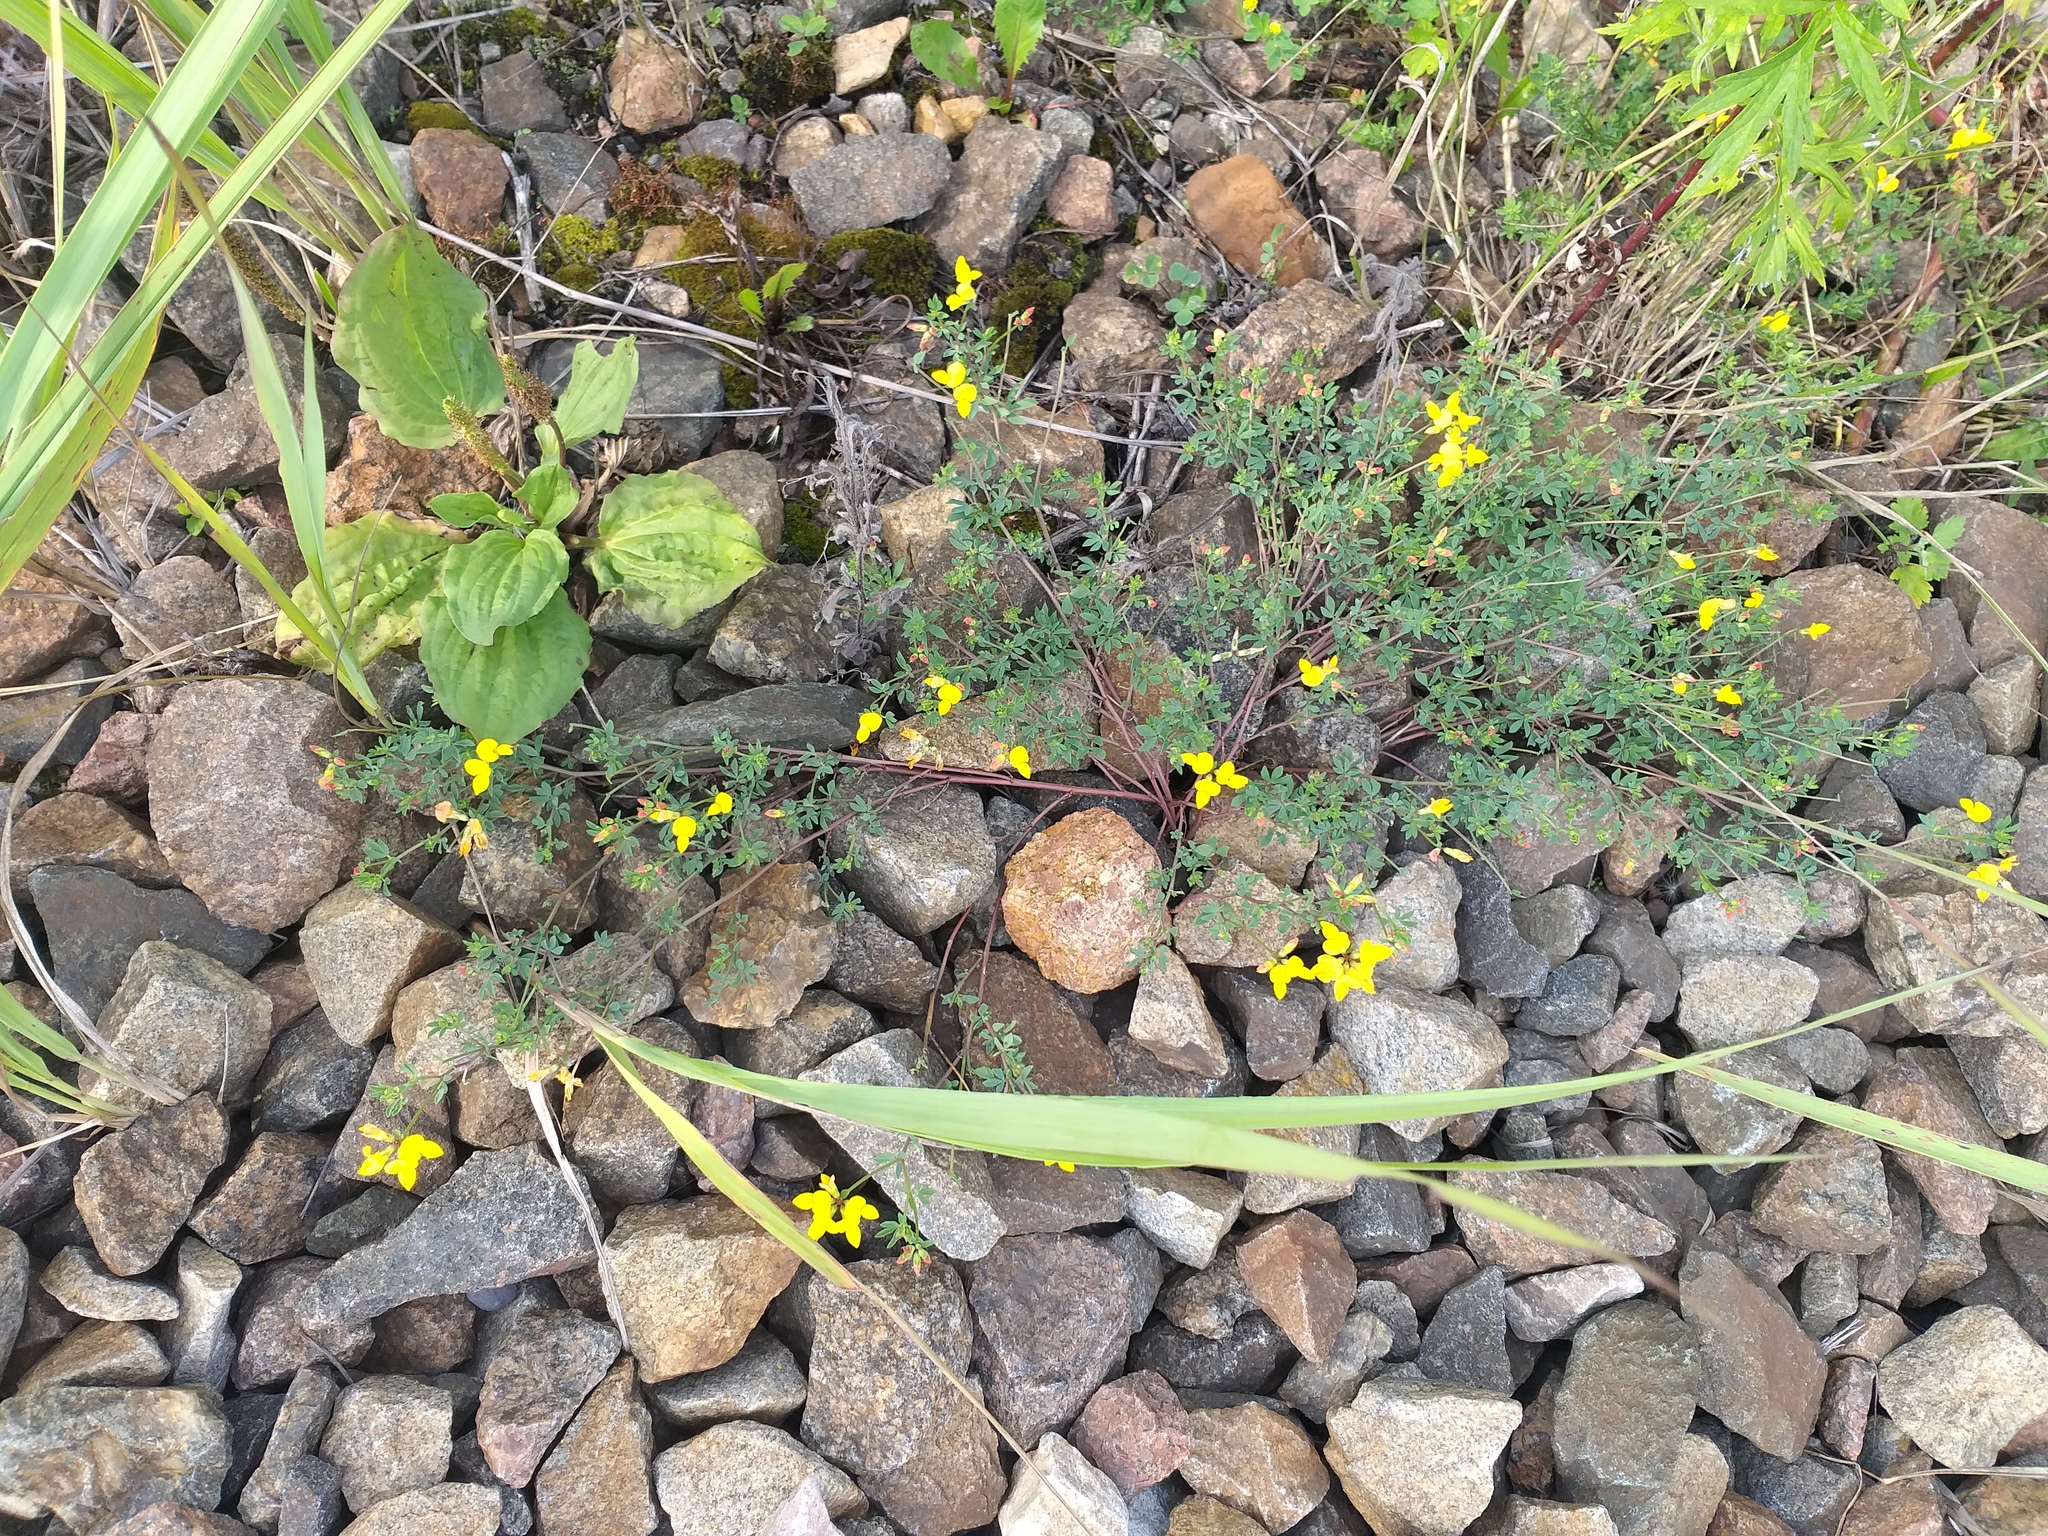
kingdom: Plantae
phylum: Tracheophyta
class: Magnoliopsida
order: Fabales
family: Fabaceae
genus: Lotus
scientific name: Lotus corniculatus
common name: Common bird's-foot-trefoil
